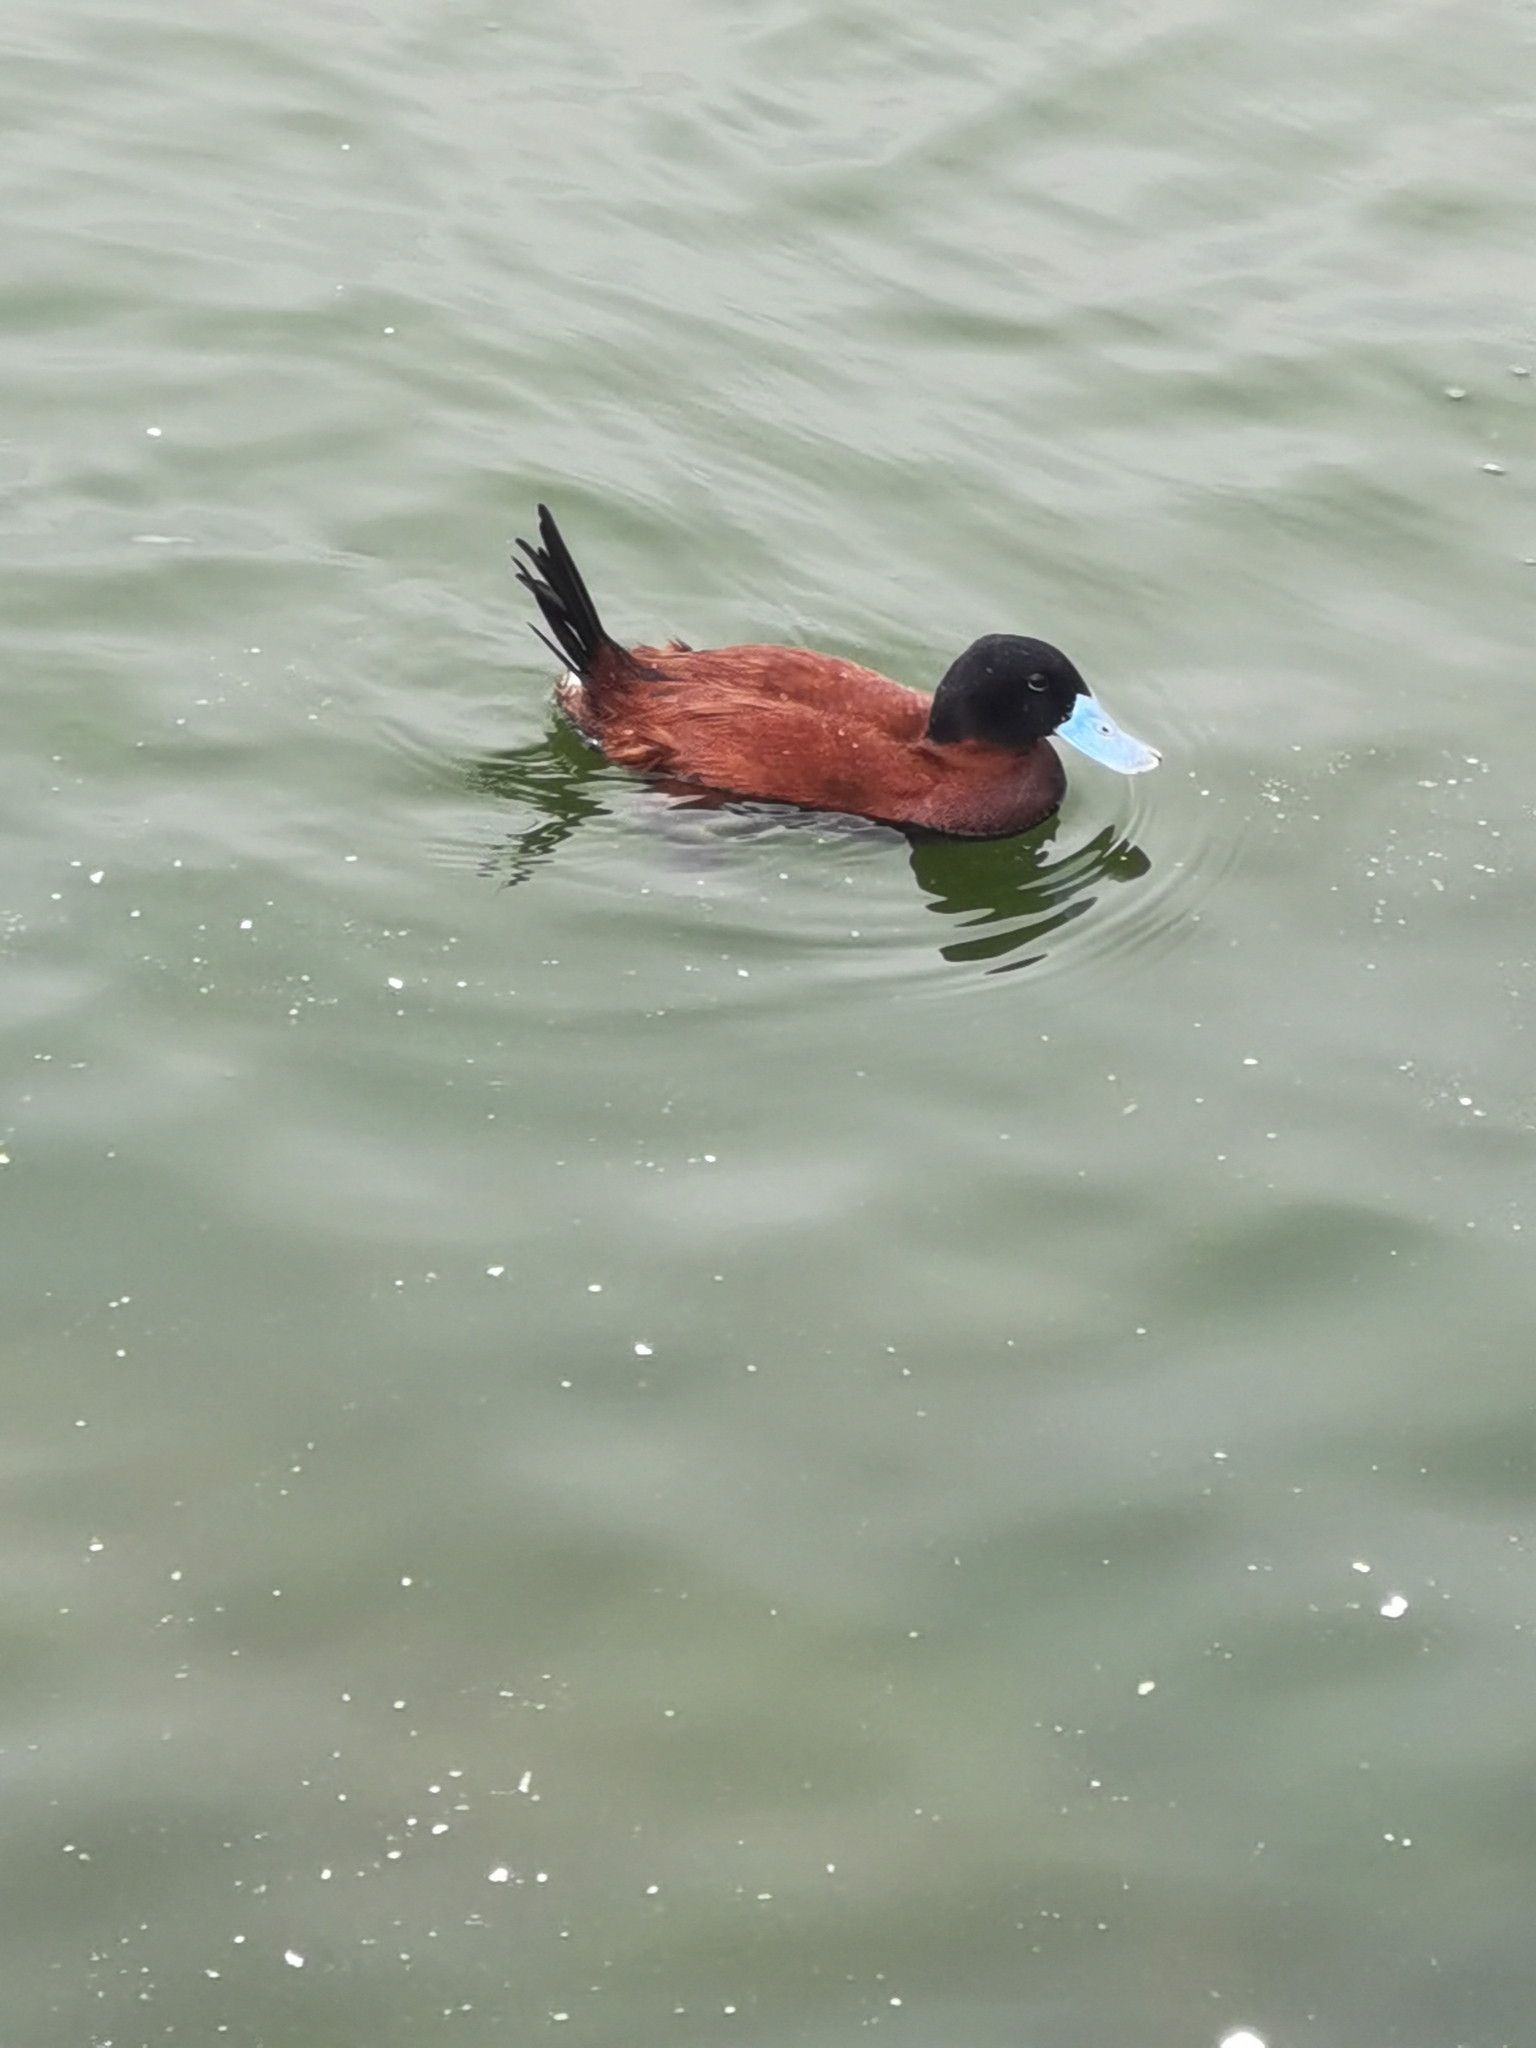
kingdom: Animalia
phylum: Chordata
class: Aves
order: Anseriformes
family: Anatidae
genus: Oxyura
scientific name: Oxyura ferruginea
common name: Andean duck
